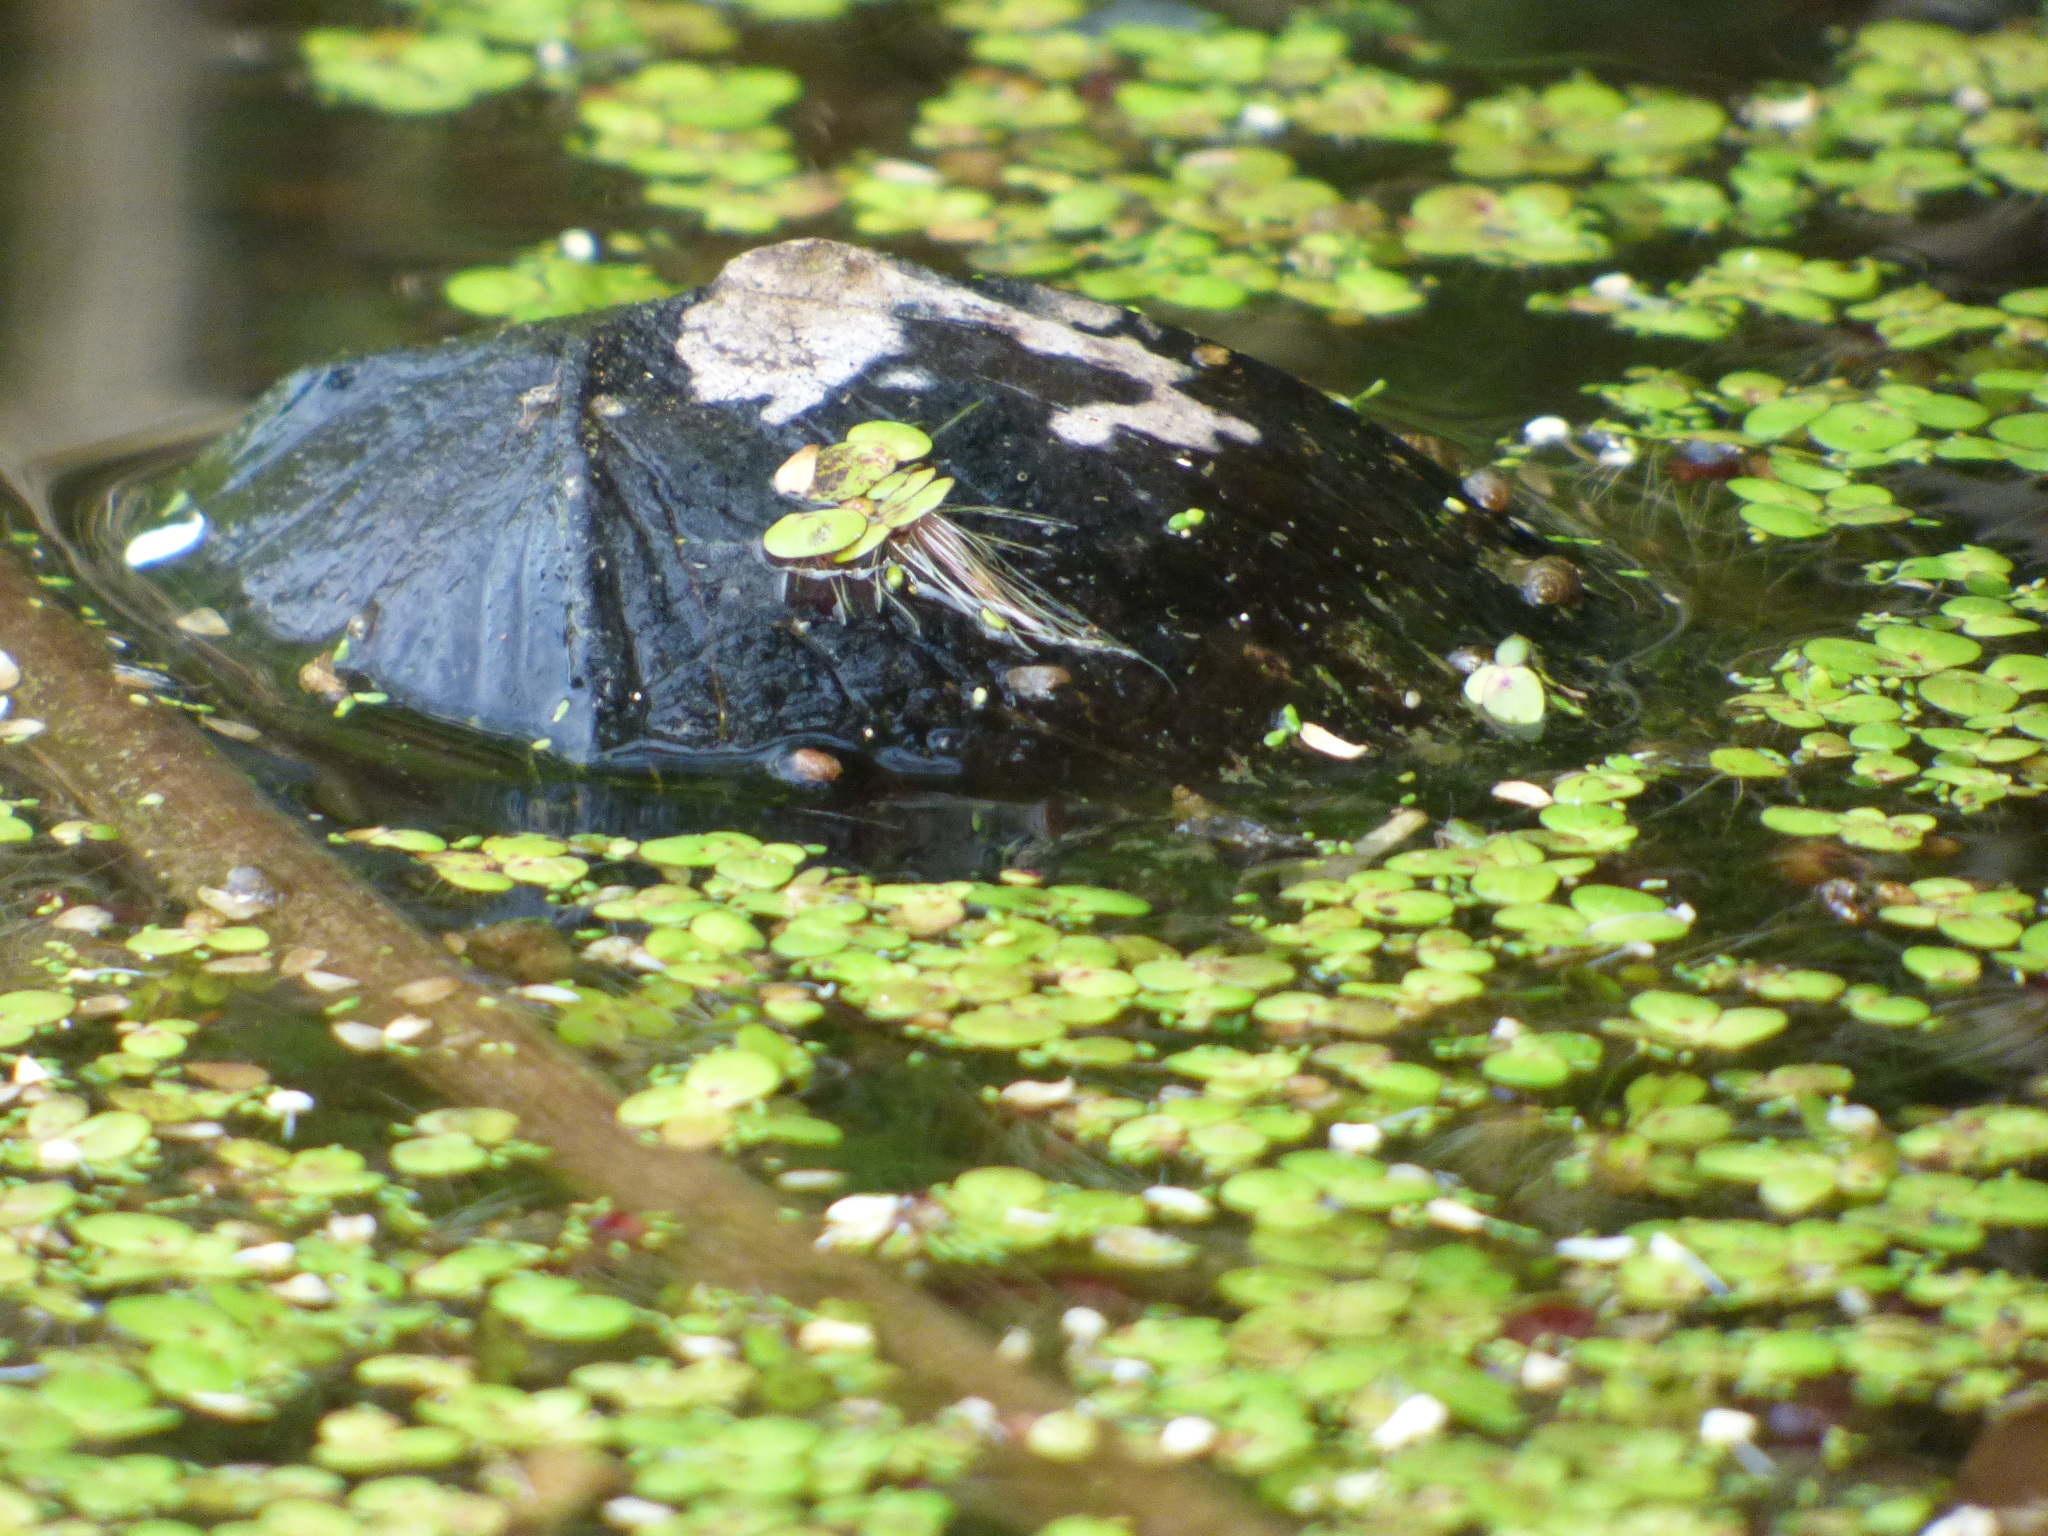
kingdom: Animalia
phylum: Chordata
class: Testudines
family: Chelydridae
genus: Chelydra
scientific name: Chelydra serpentina
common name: Common snapping turtle
